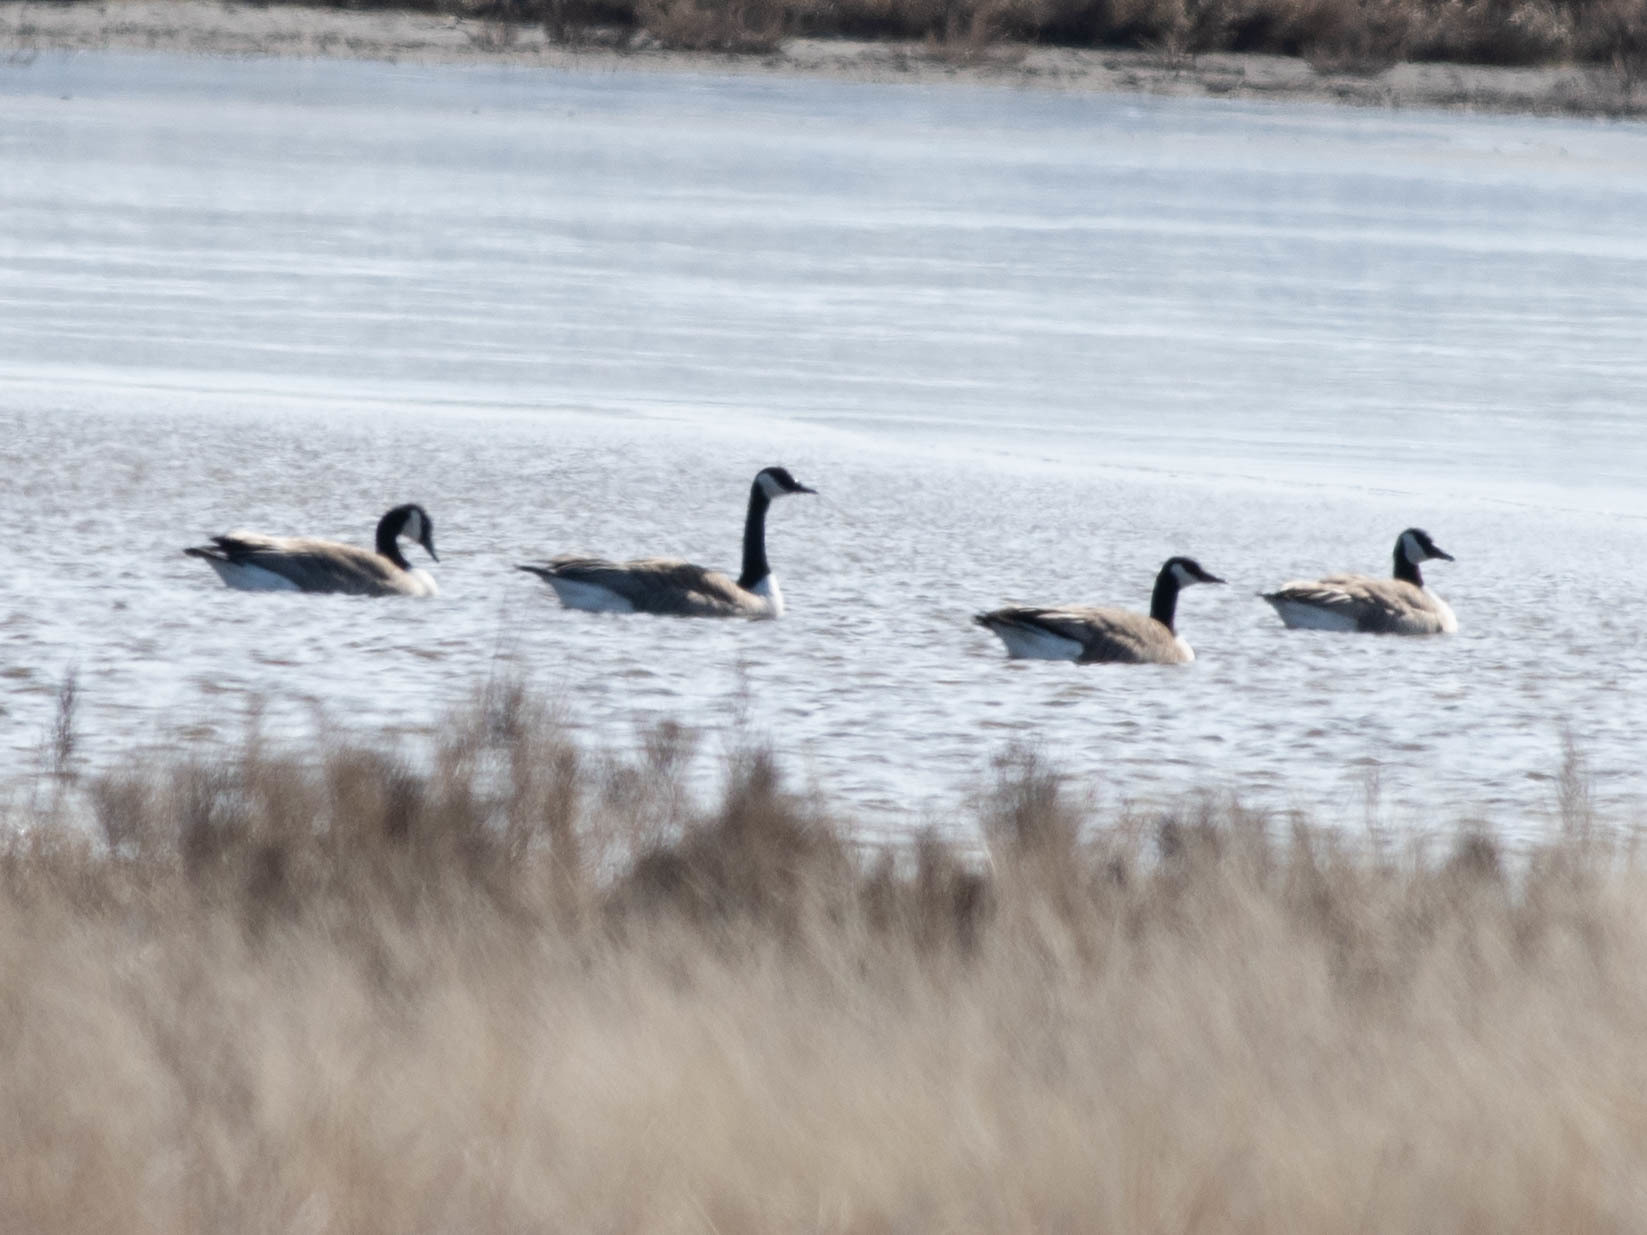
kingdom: Animalia
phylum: Chordata
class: Aves
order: Anseriformes
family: Anatidae
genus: Branta
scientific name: Branta canadensis
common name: Canada goose
